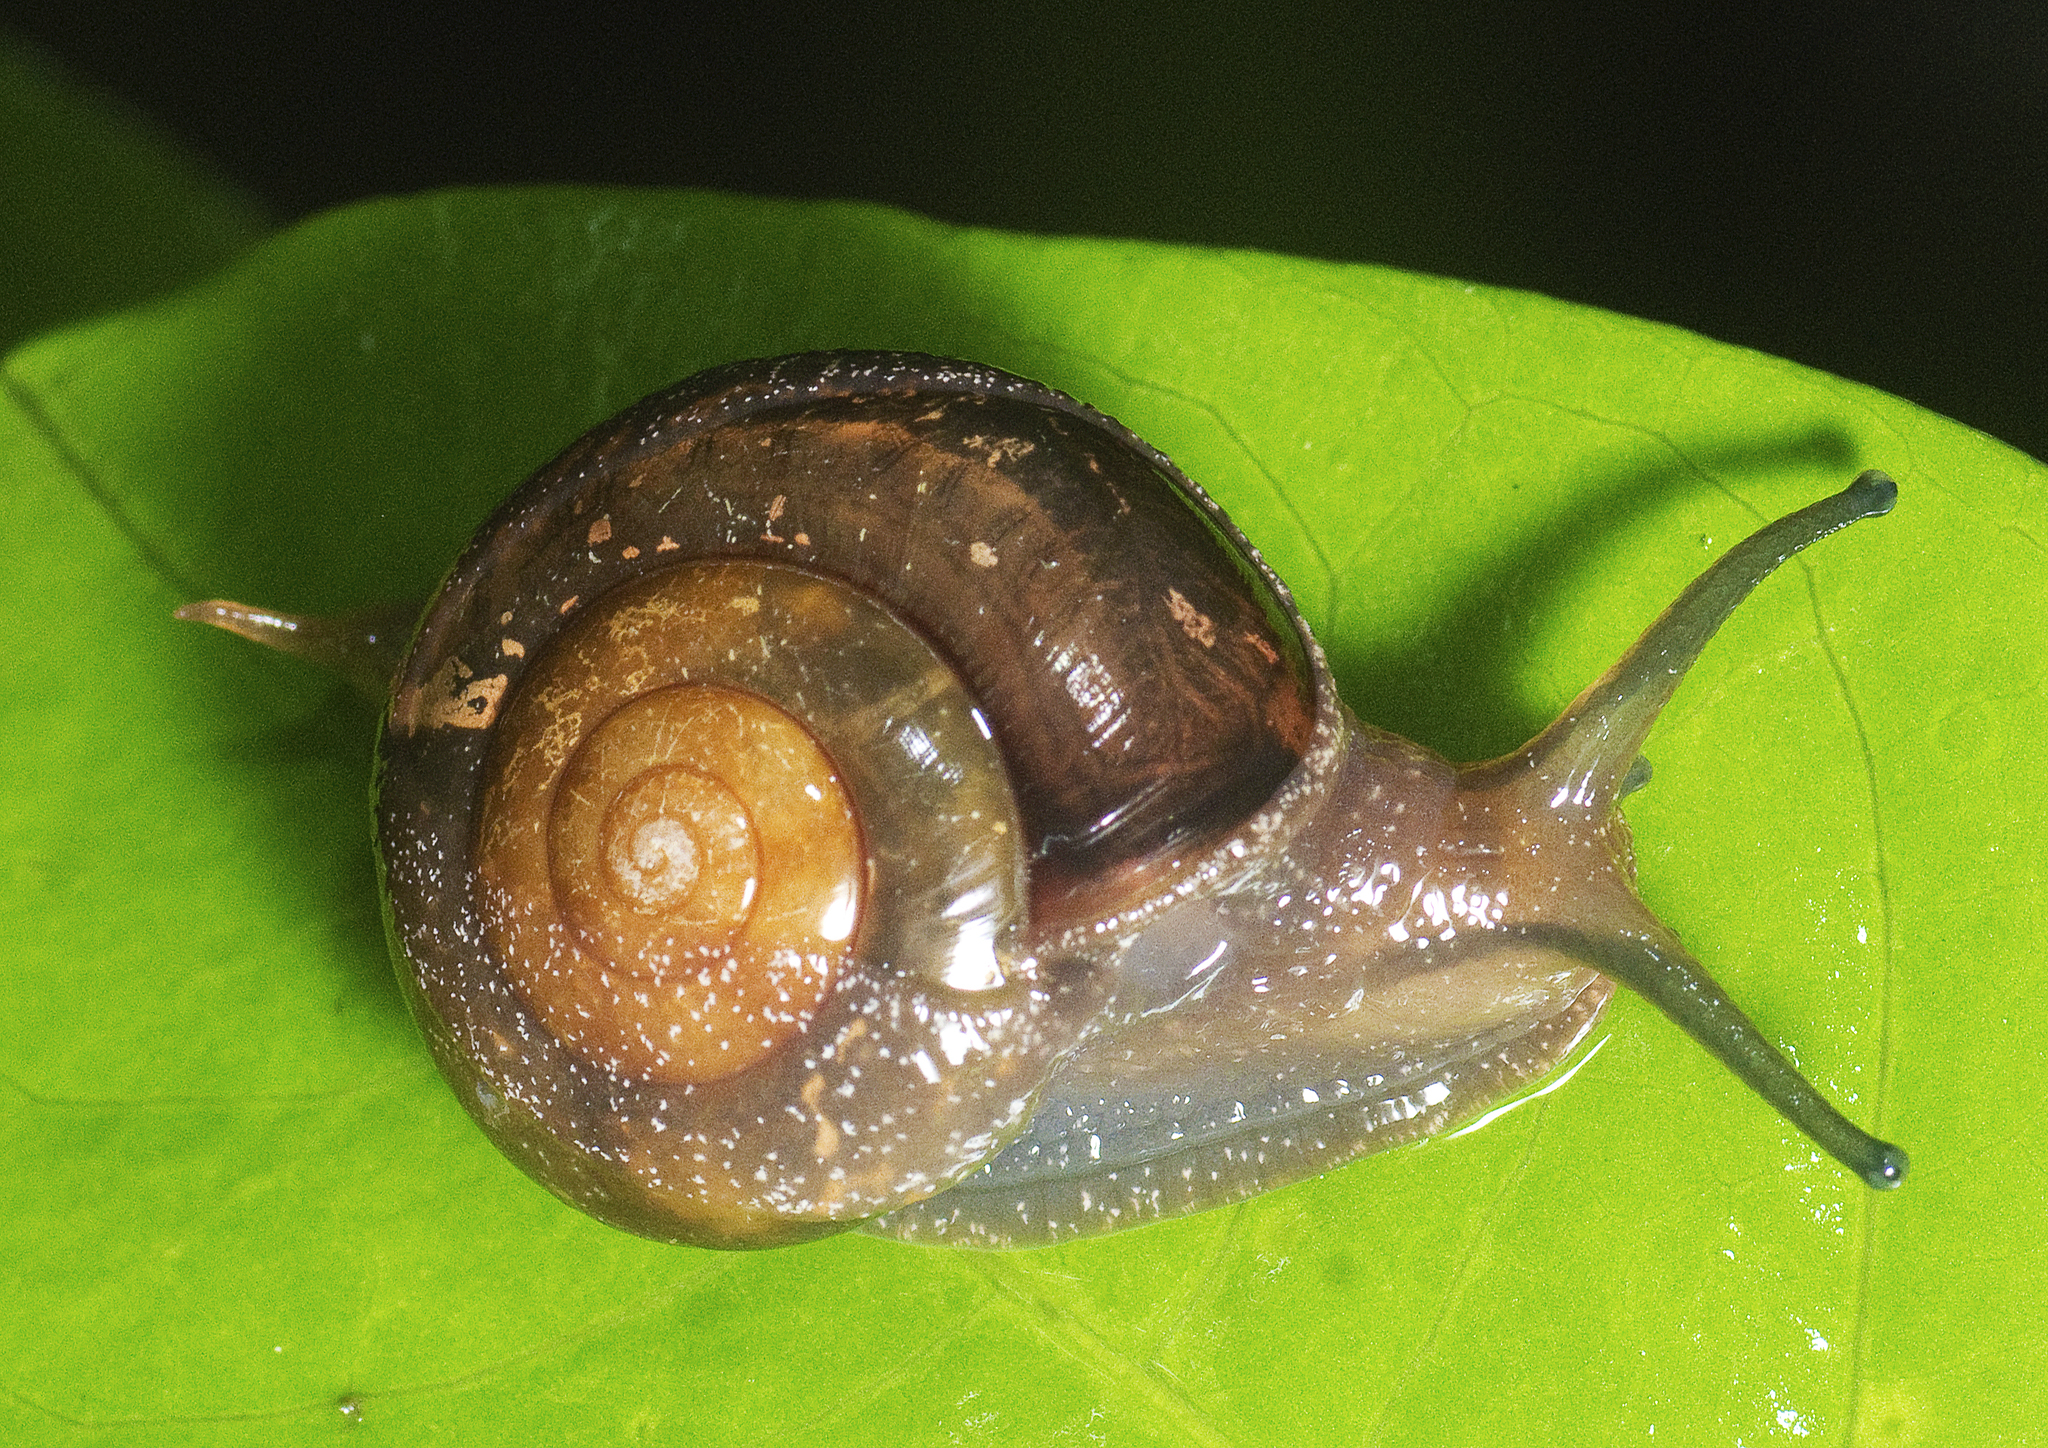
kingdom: Animalia
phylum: Mollusca
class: Gastropoda
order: Stylommatophora
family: Helicarionidae
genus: Elatonitor
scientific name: Elatonitor suturalis
